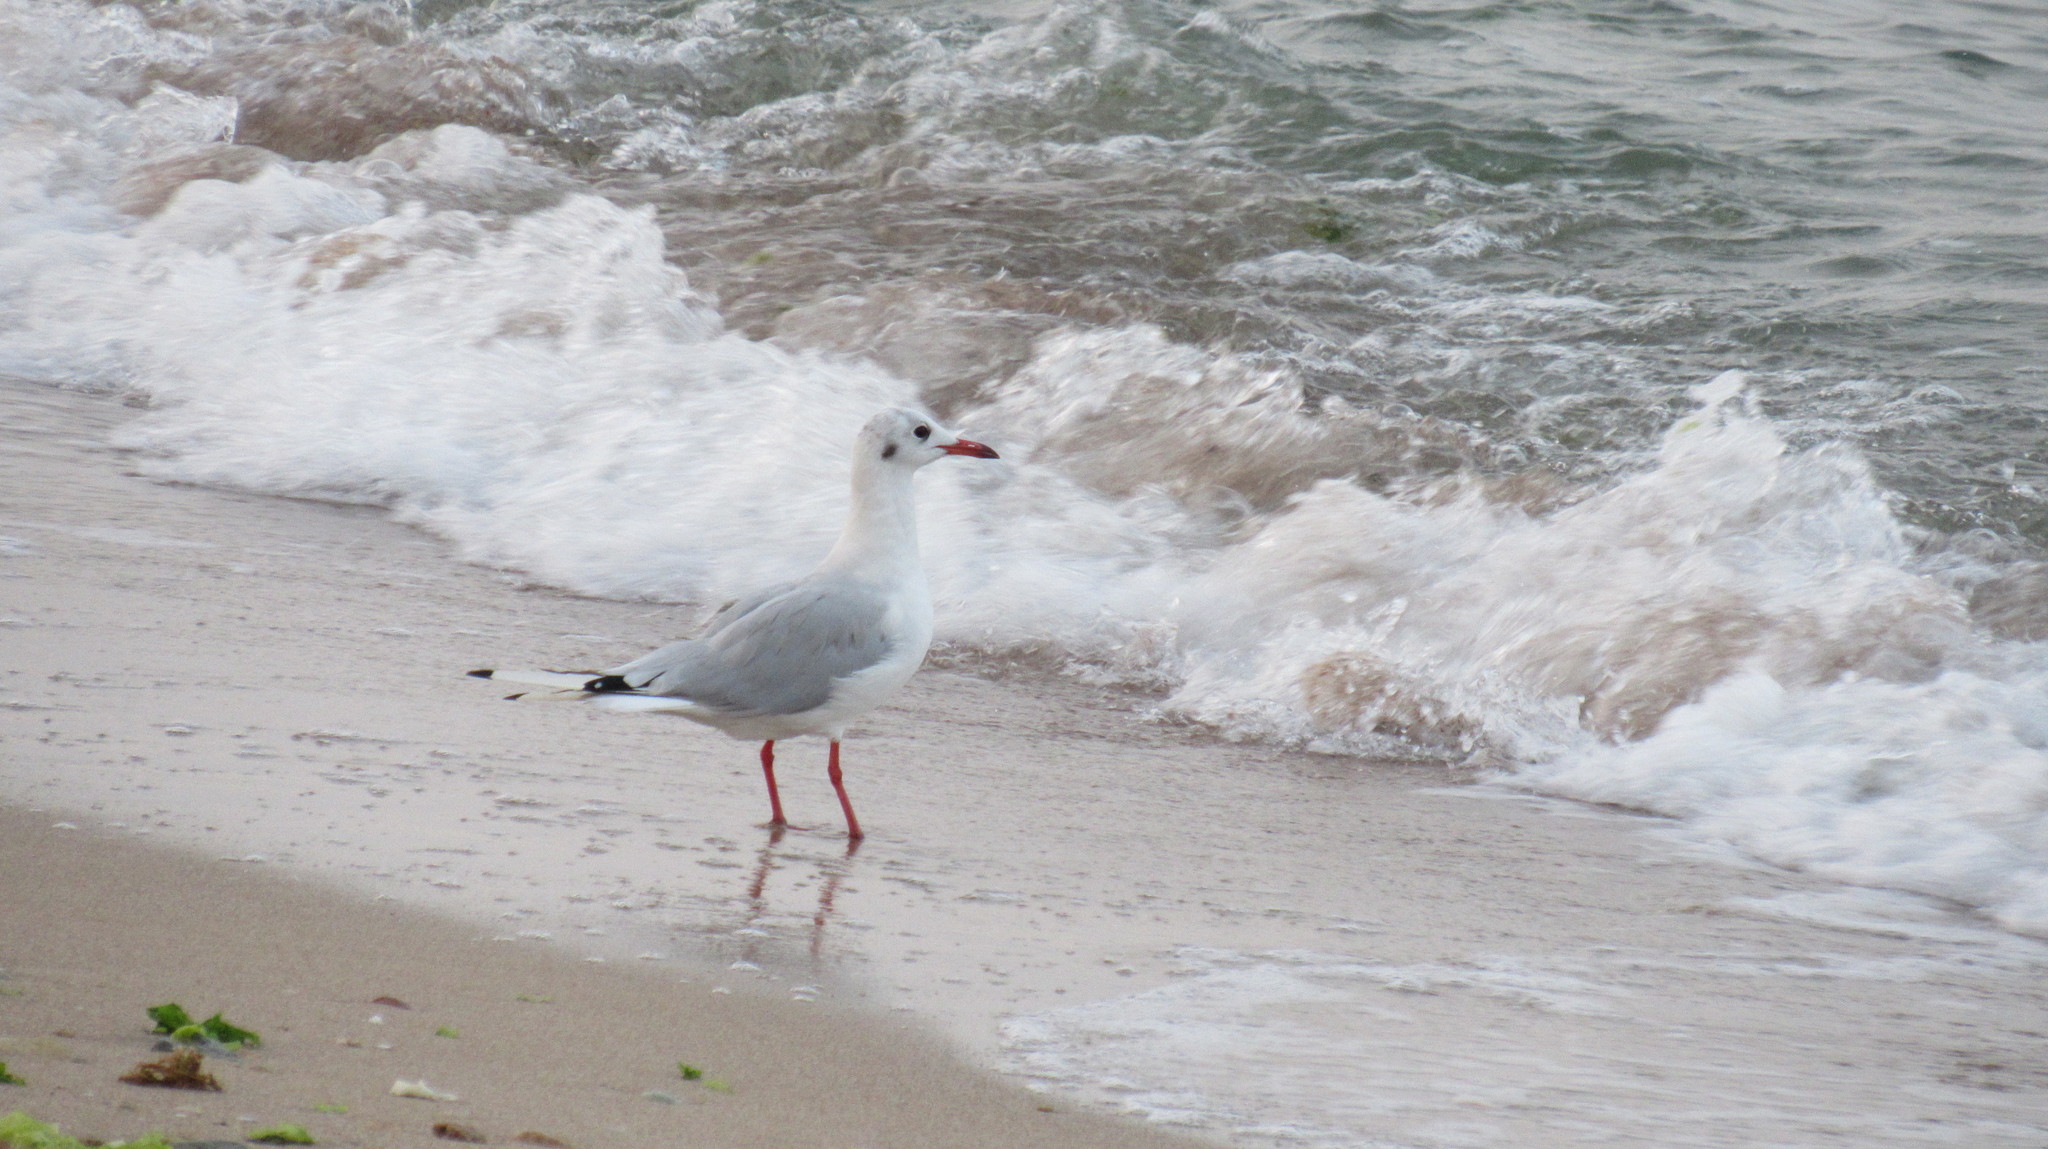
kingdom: Animalia
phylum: Chordata
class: Aves
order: Charadriiformes
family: Laridae
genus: Chroicocephalus
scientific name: Chroicocephalus ridibundus
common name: Black-headed gull
